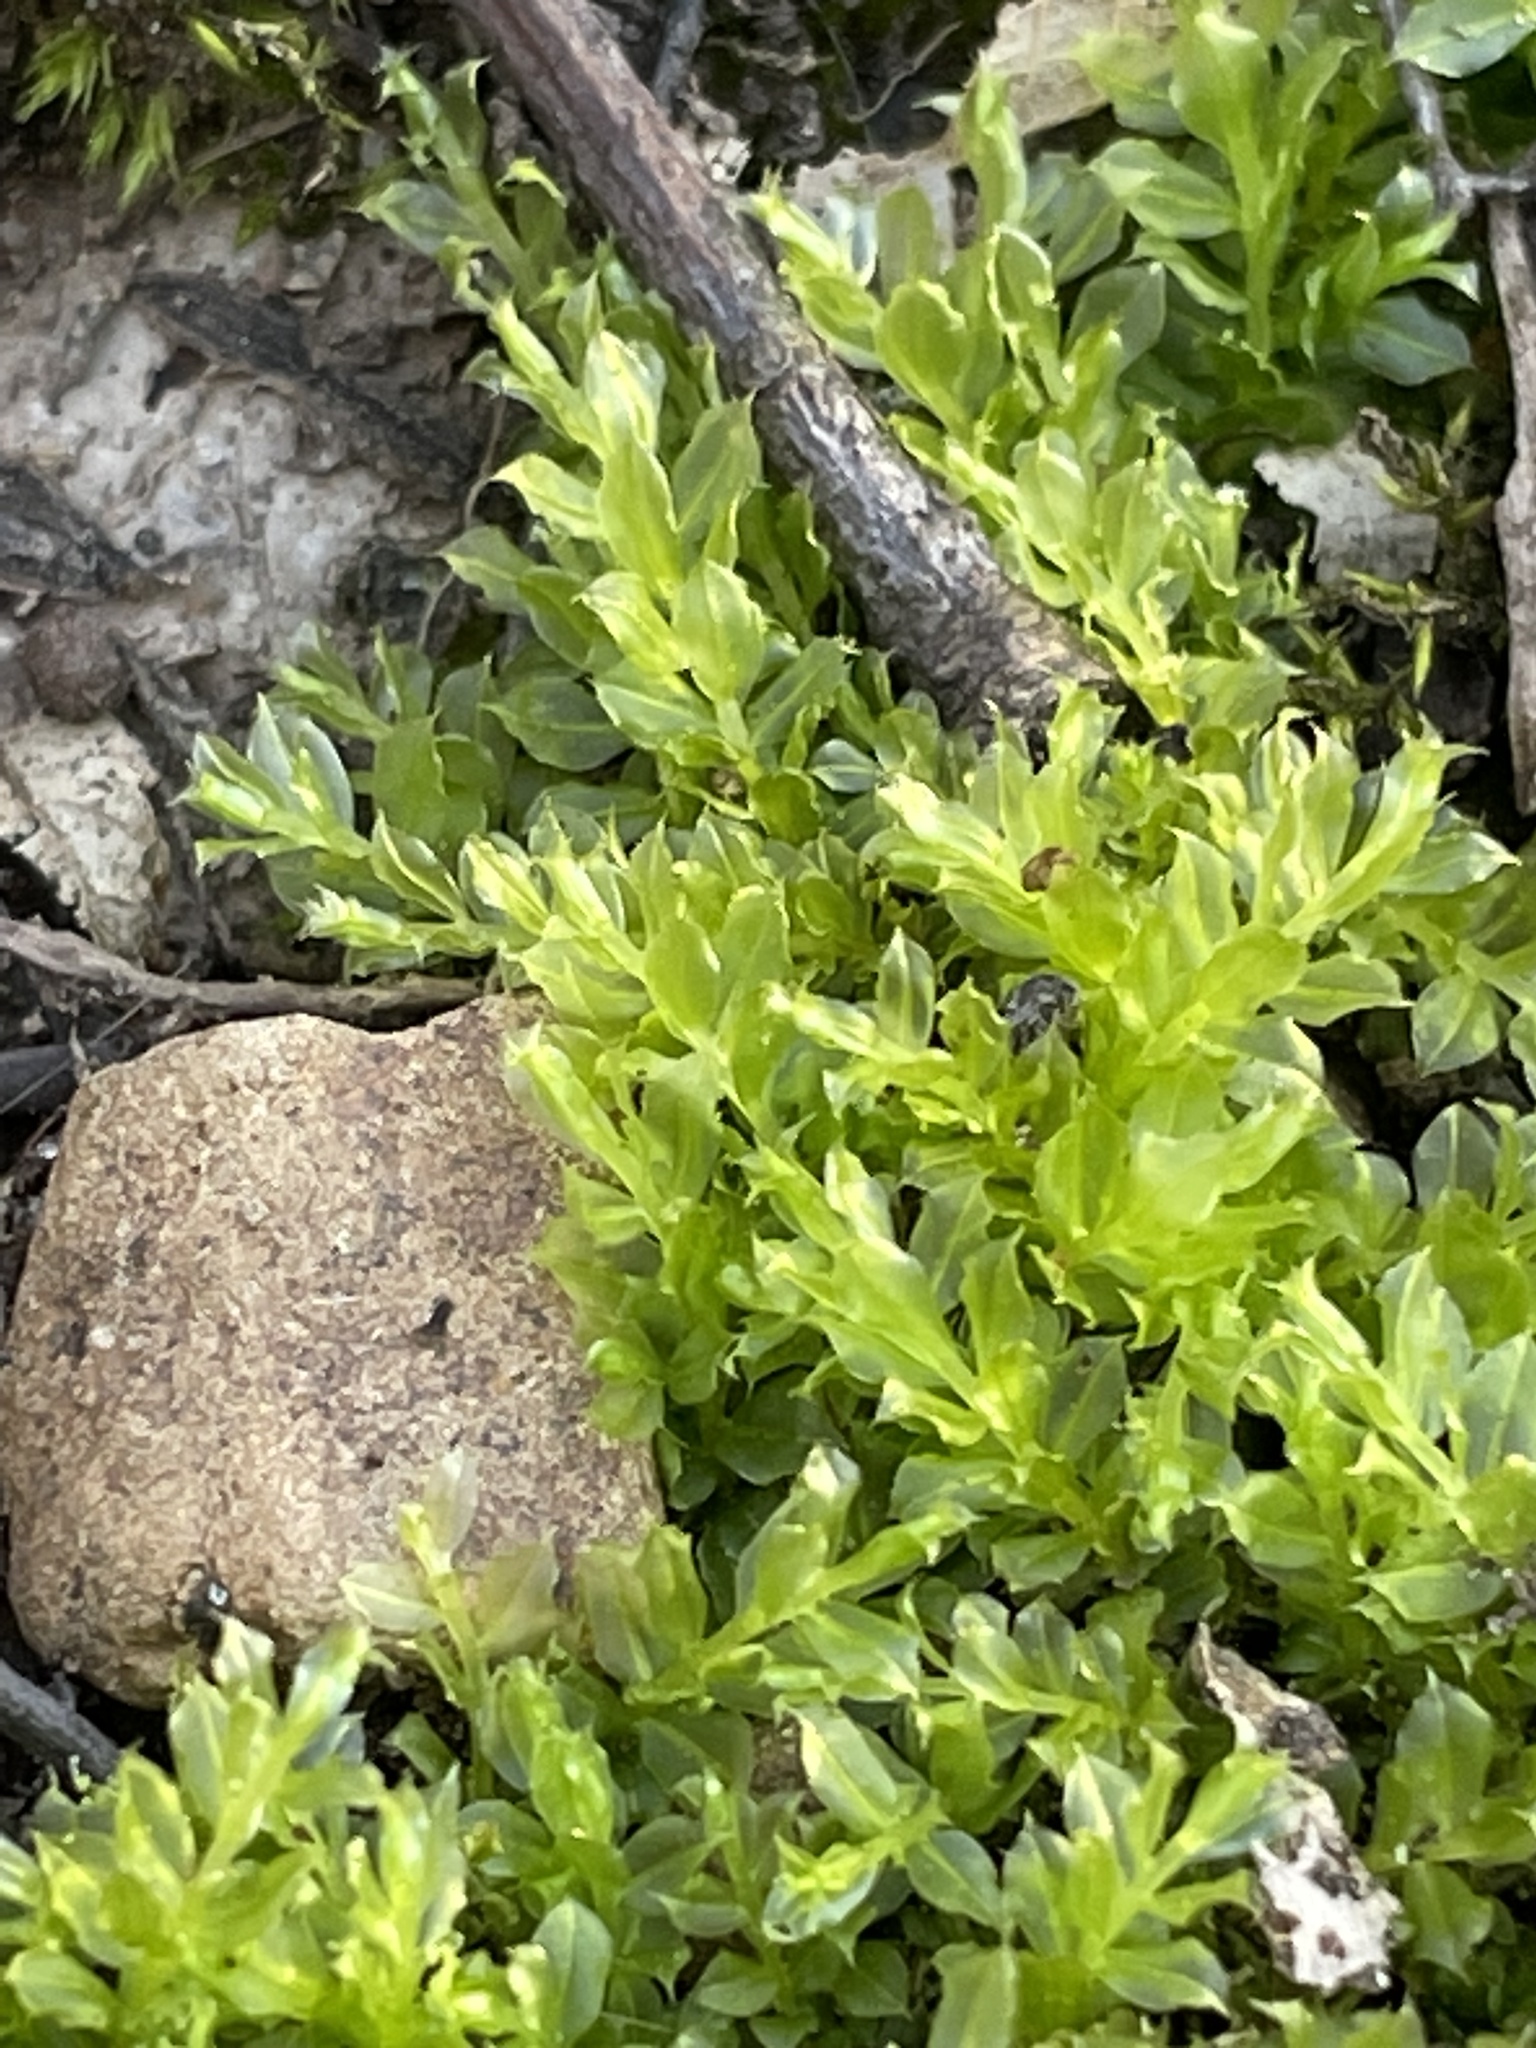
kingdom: Plantae
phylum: Bryophyta
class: Bryopsida
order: Bryales
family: Mniaceae
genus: Plagiomnium
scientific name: Plagiomnium cuspidatum
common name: Woodsy leafy moss
